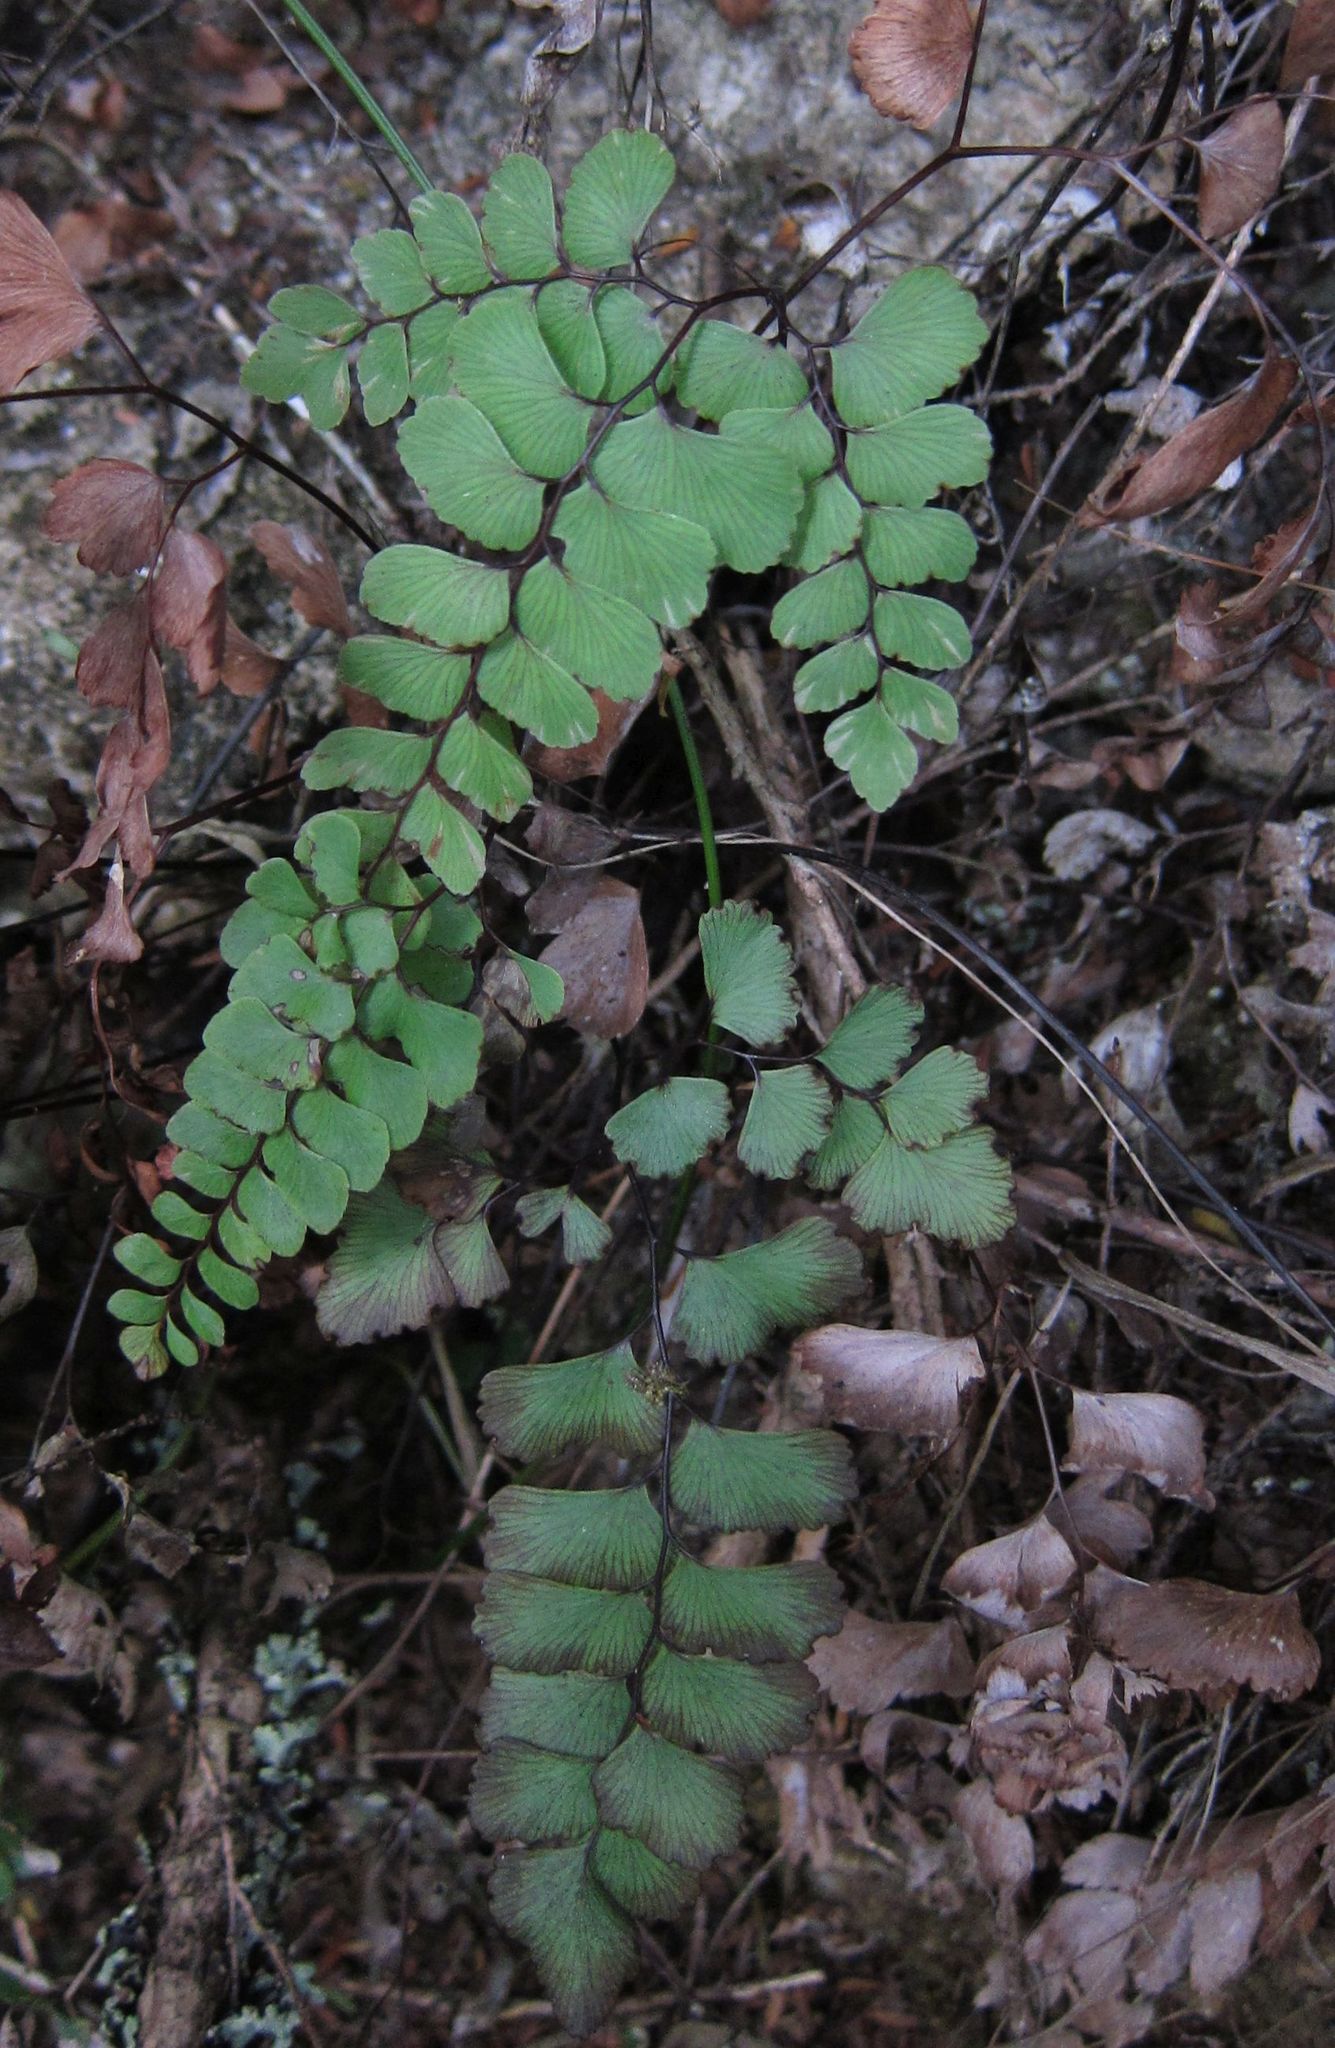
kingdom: Plantae
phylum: Tracheophyta
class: Polypodiopsida
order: Polypodiales
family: Pteridaceae
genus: Adiantum
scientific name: Adiantum cunninghamii
